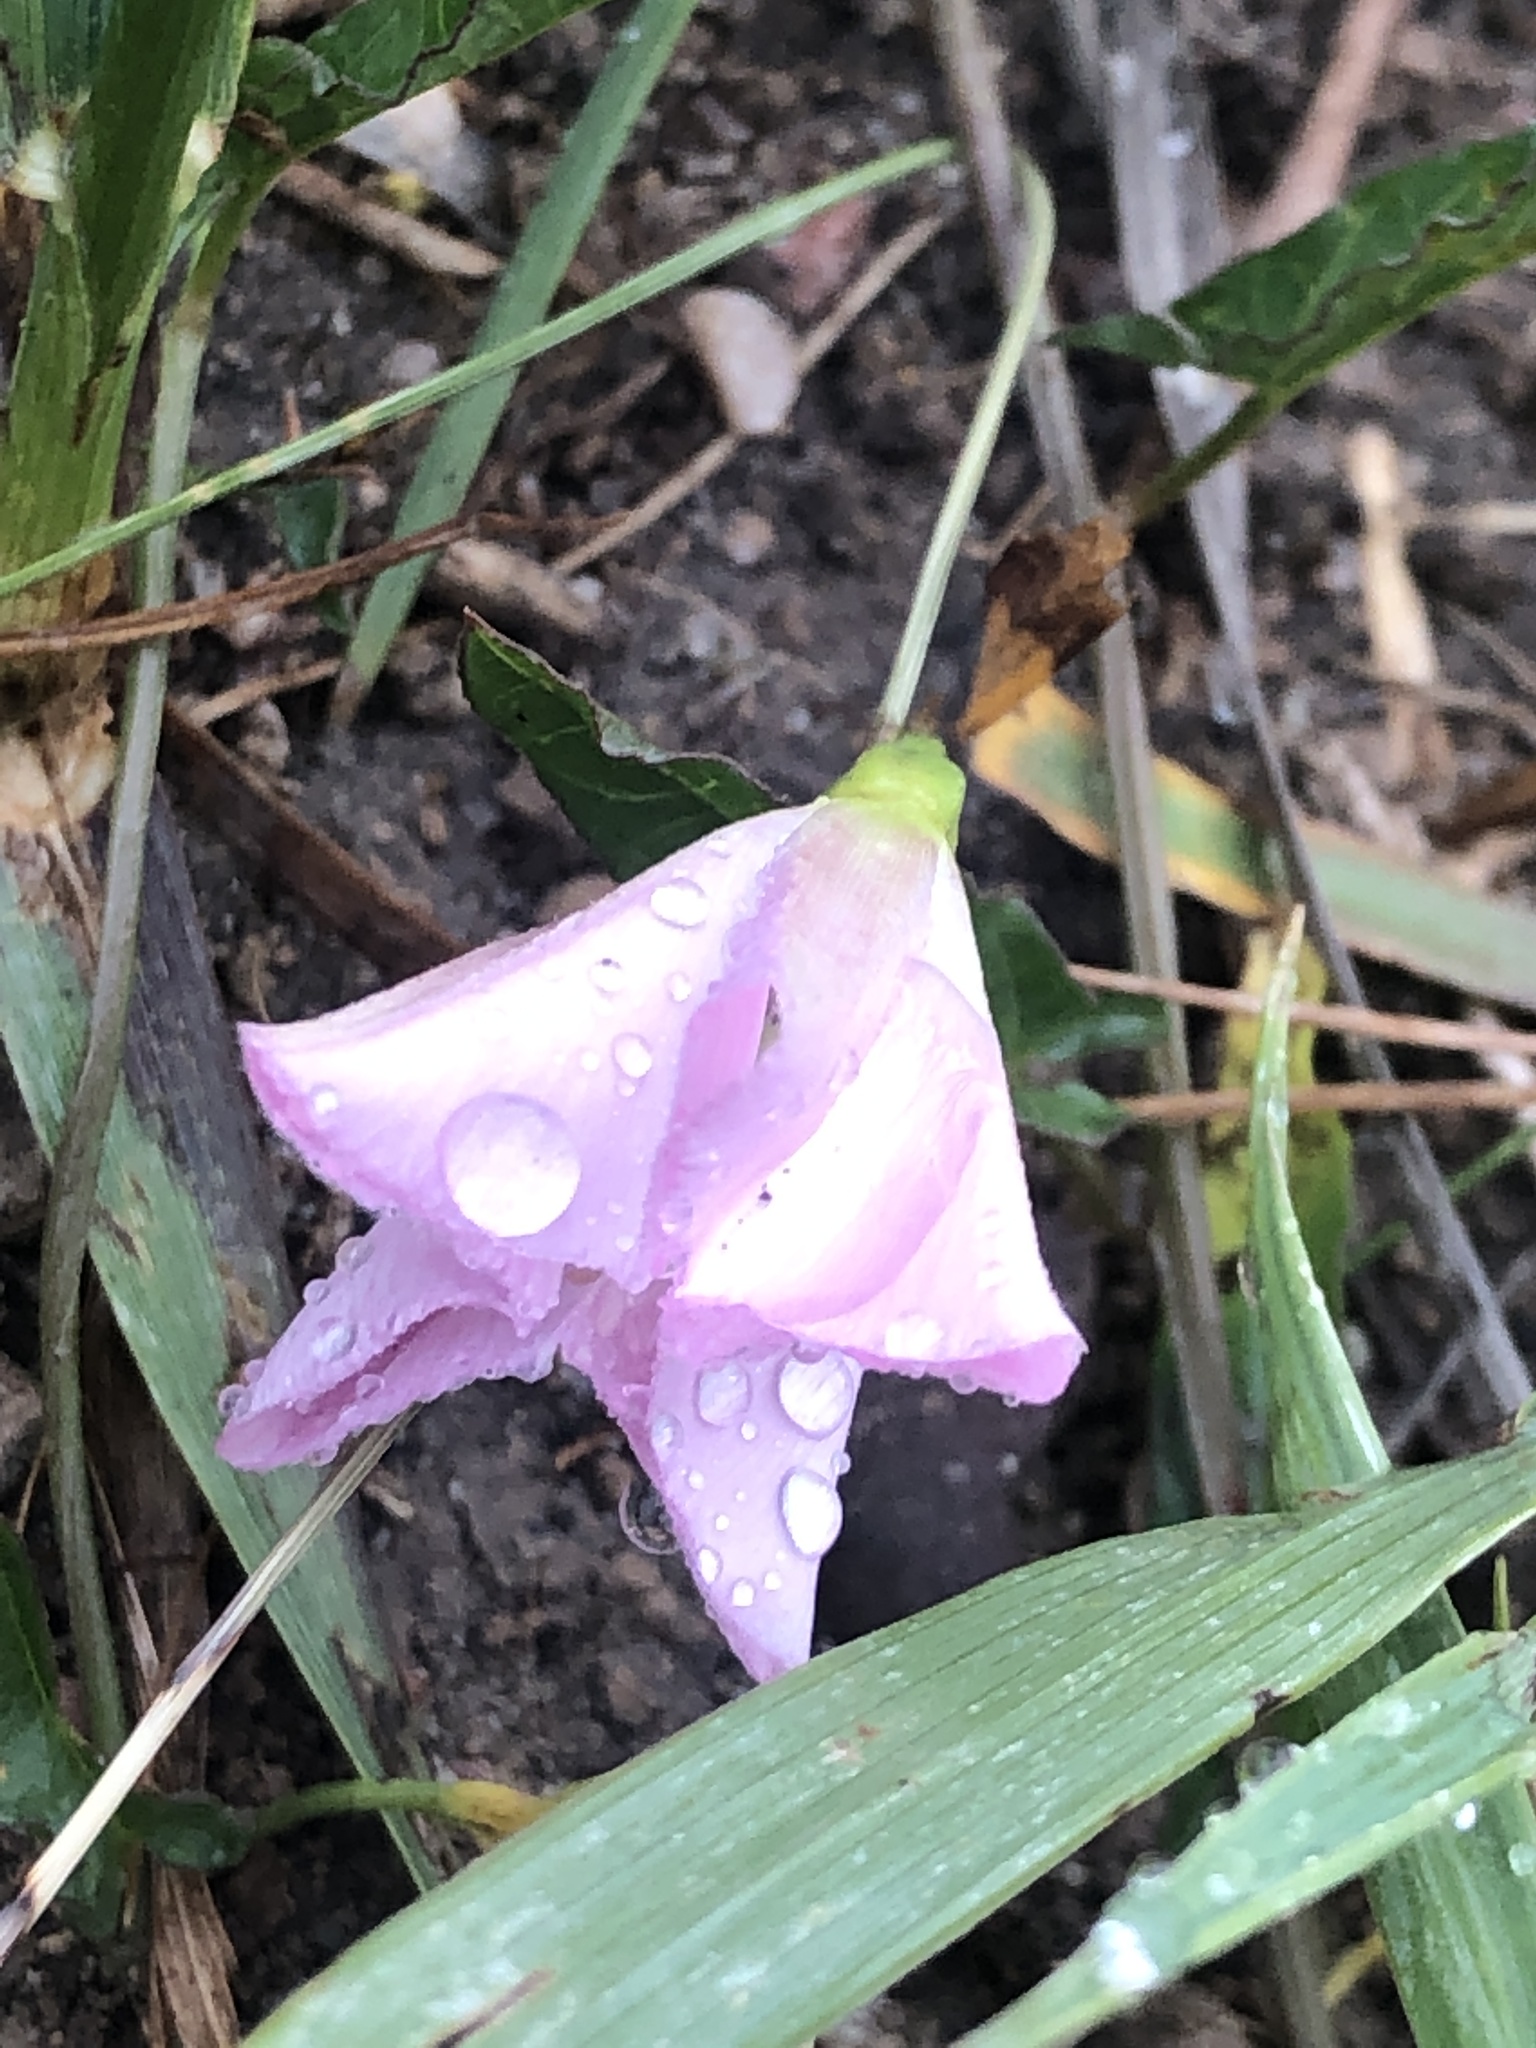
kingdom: Plantae
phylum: Tracheophyta
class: Magnoliopsida
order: Solanales
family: Convolvulaceae
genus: Convolvulus
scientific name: Convolvulus arvensis
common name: Field bindweed
